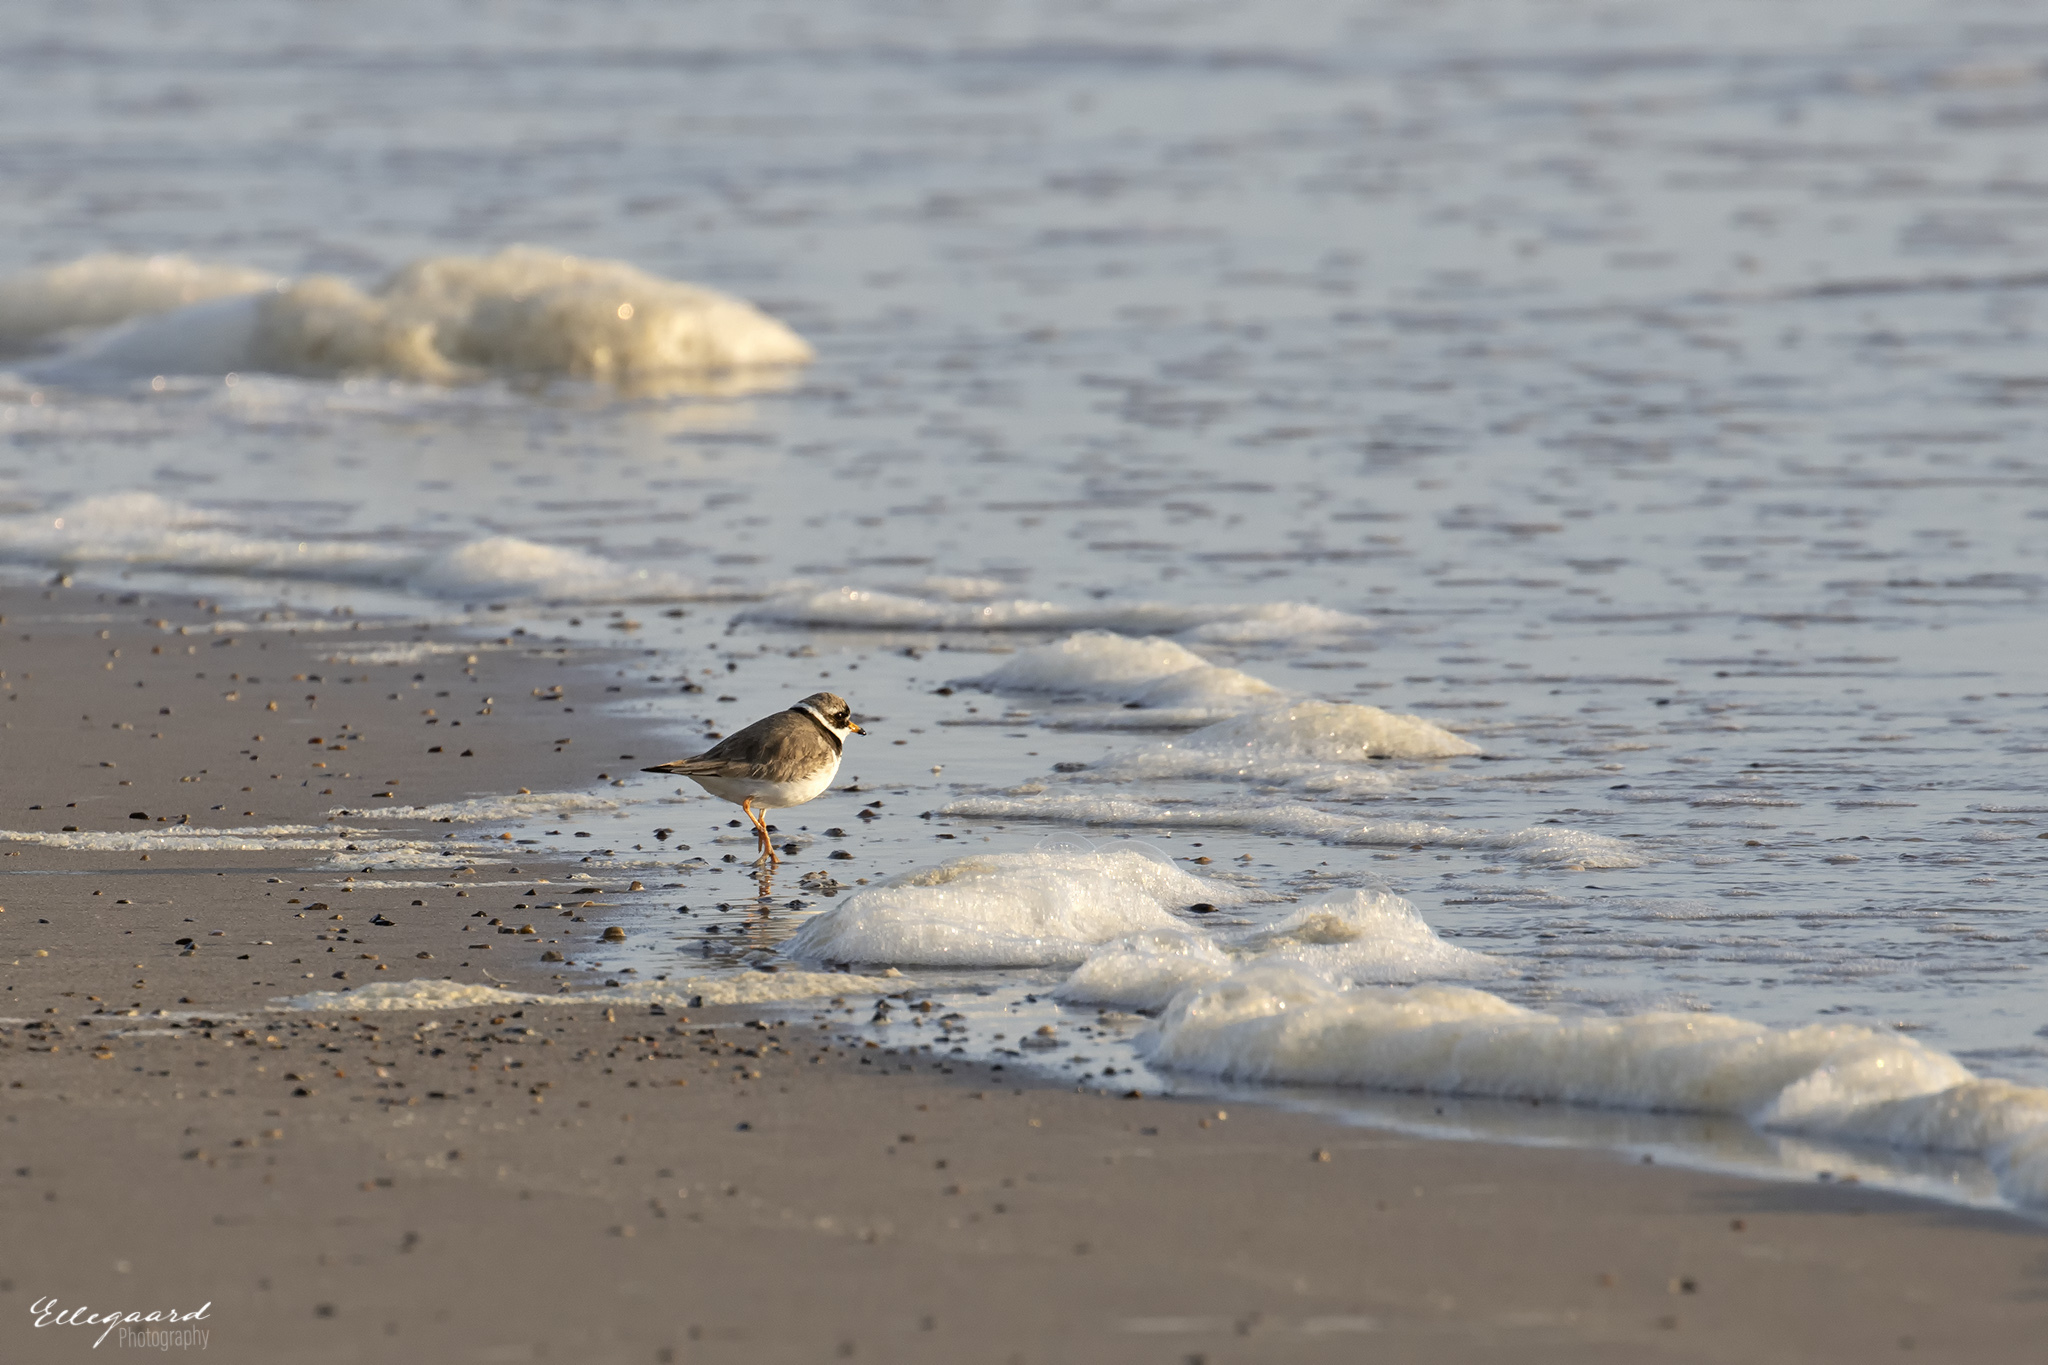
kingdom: Animalia
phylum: Chordata
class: Aves
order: Charadriiformes
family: Charadriidae
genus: Charadrius
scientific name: Charadrius hiaticula
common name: Common ringed plover
